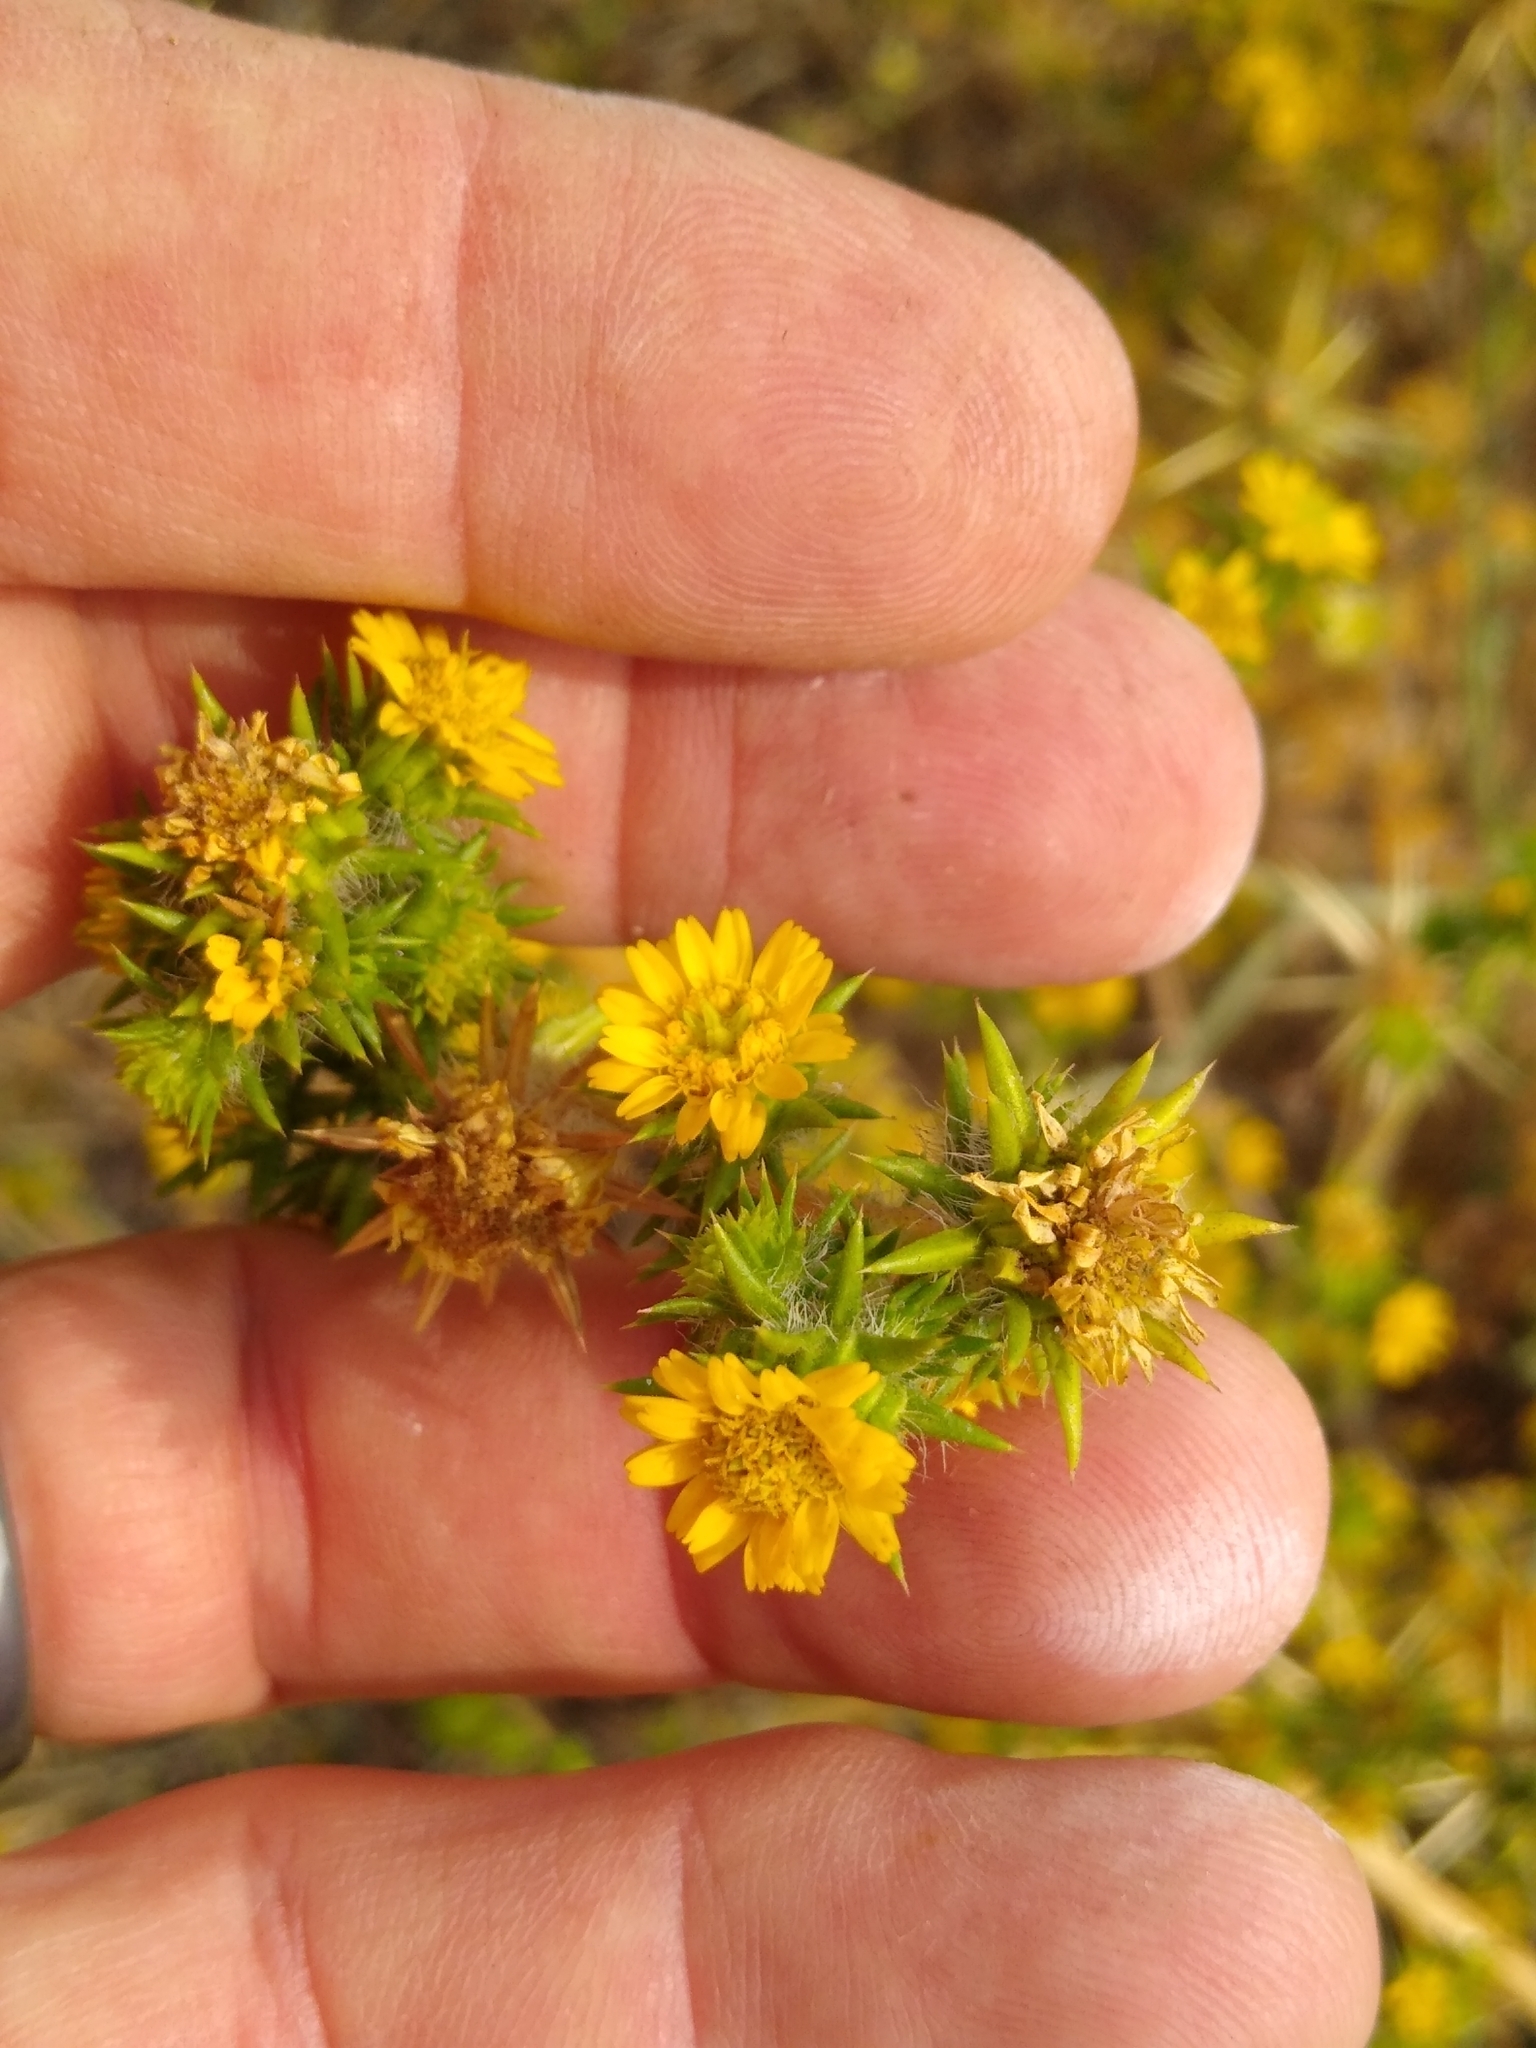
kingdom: Plantae
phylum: Tracheophyta
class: Magnoliopsida
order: Asterales
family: Asteraceae
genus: Centromadia
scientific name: Centromadia pungens
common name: Common spikeweed
